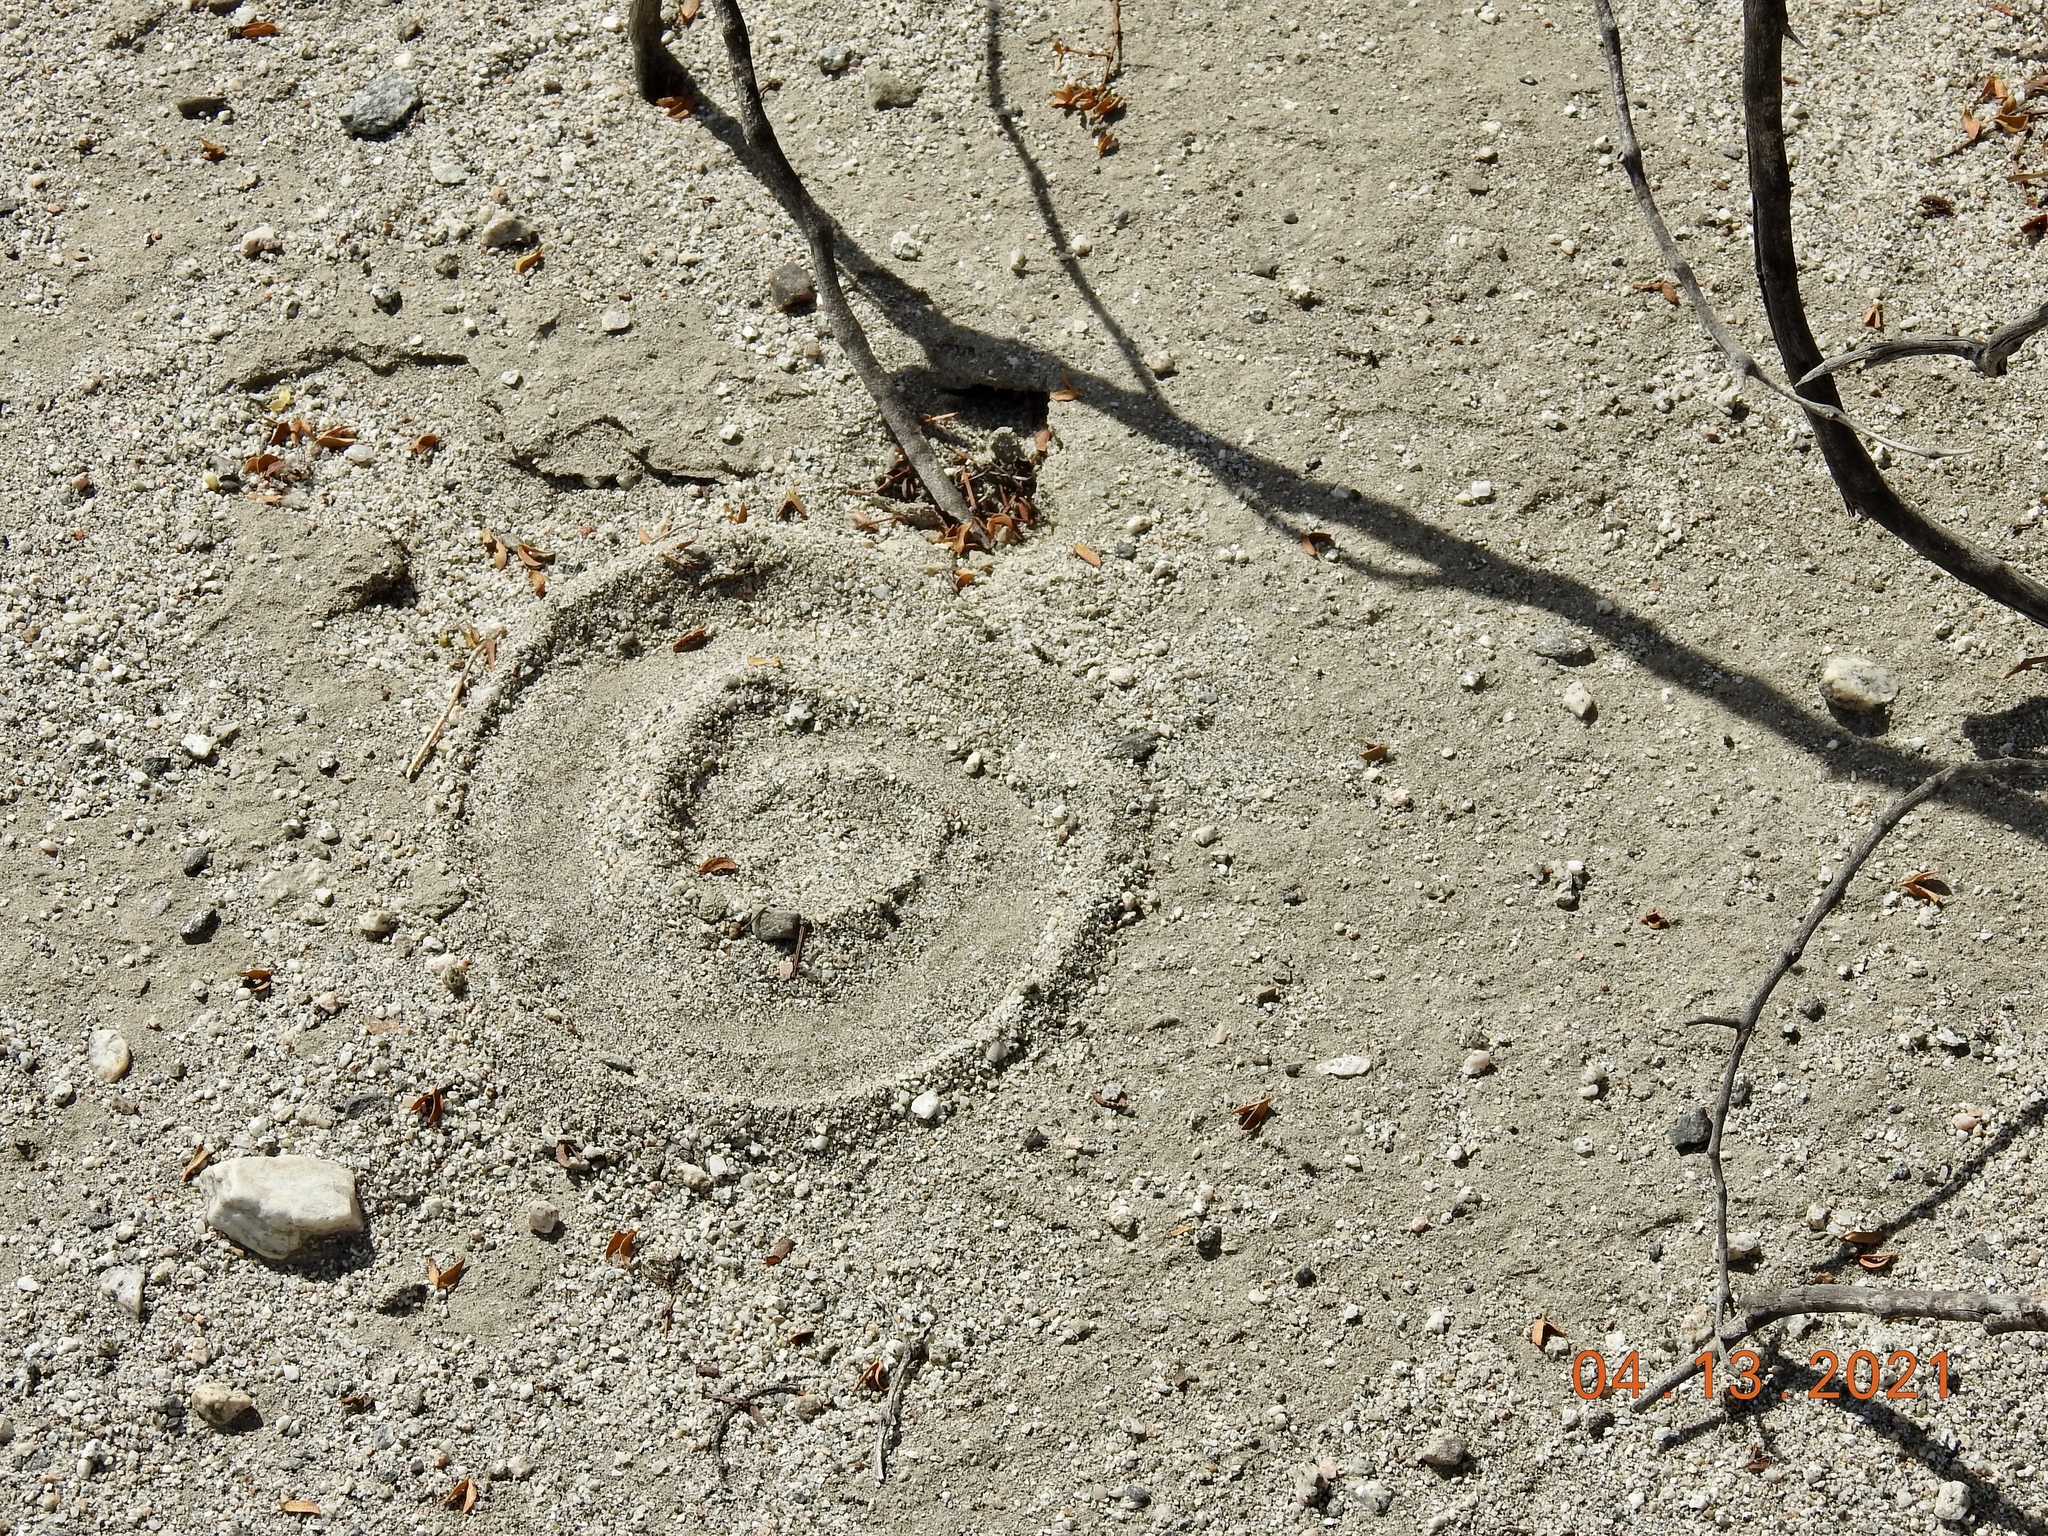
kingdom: Animalia
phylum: Chordata
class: Squamata
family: Viperidae
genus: Crotalus
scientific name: Crotalus cerastes
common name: Sidewinder
